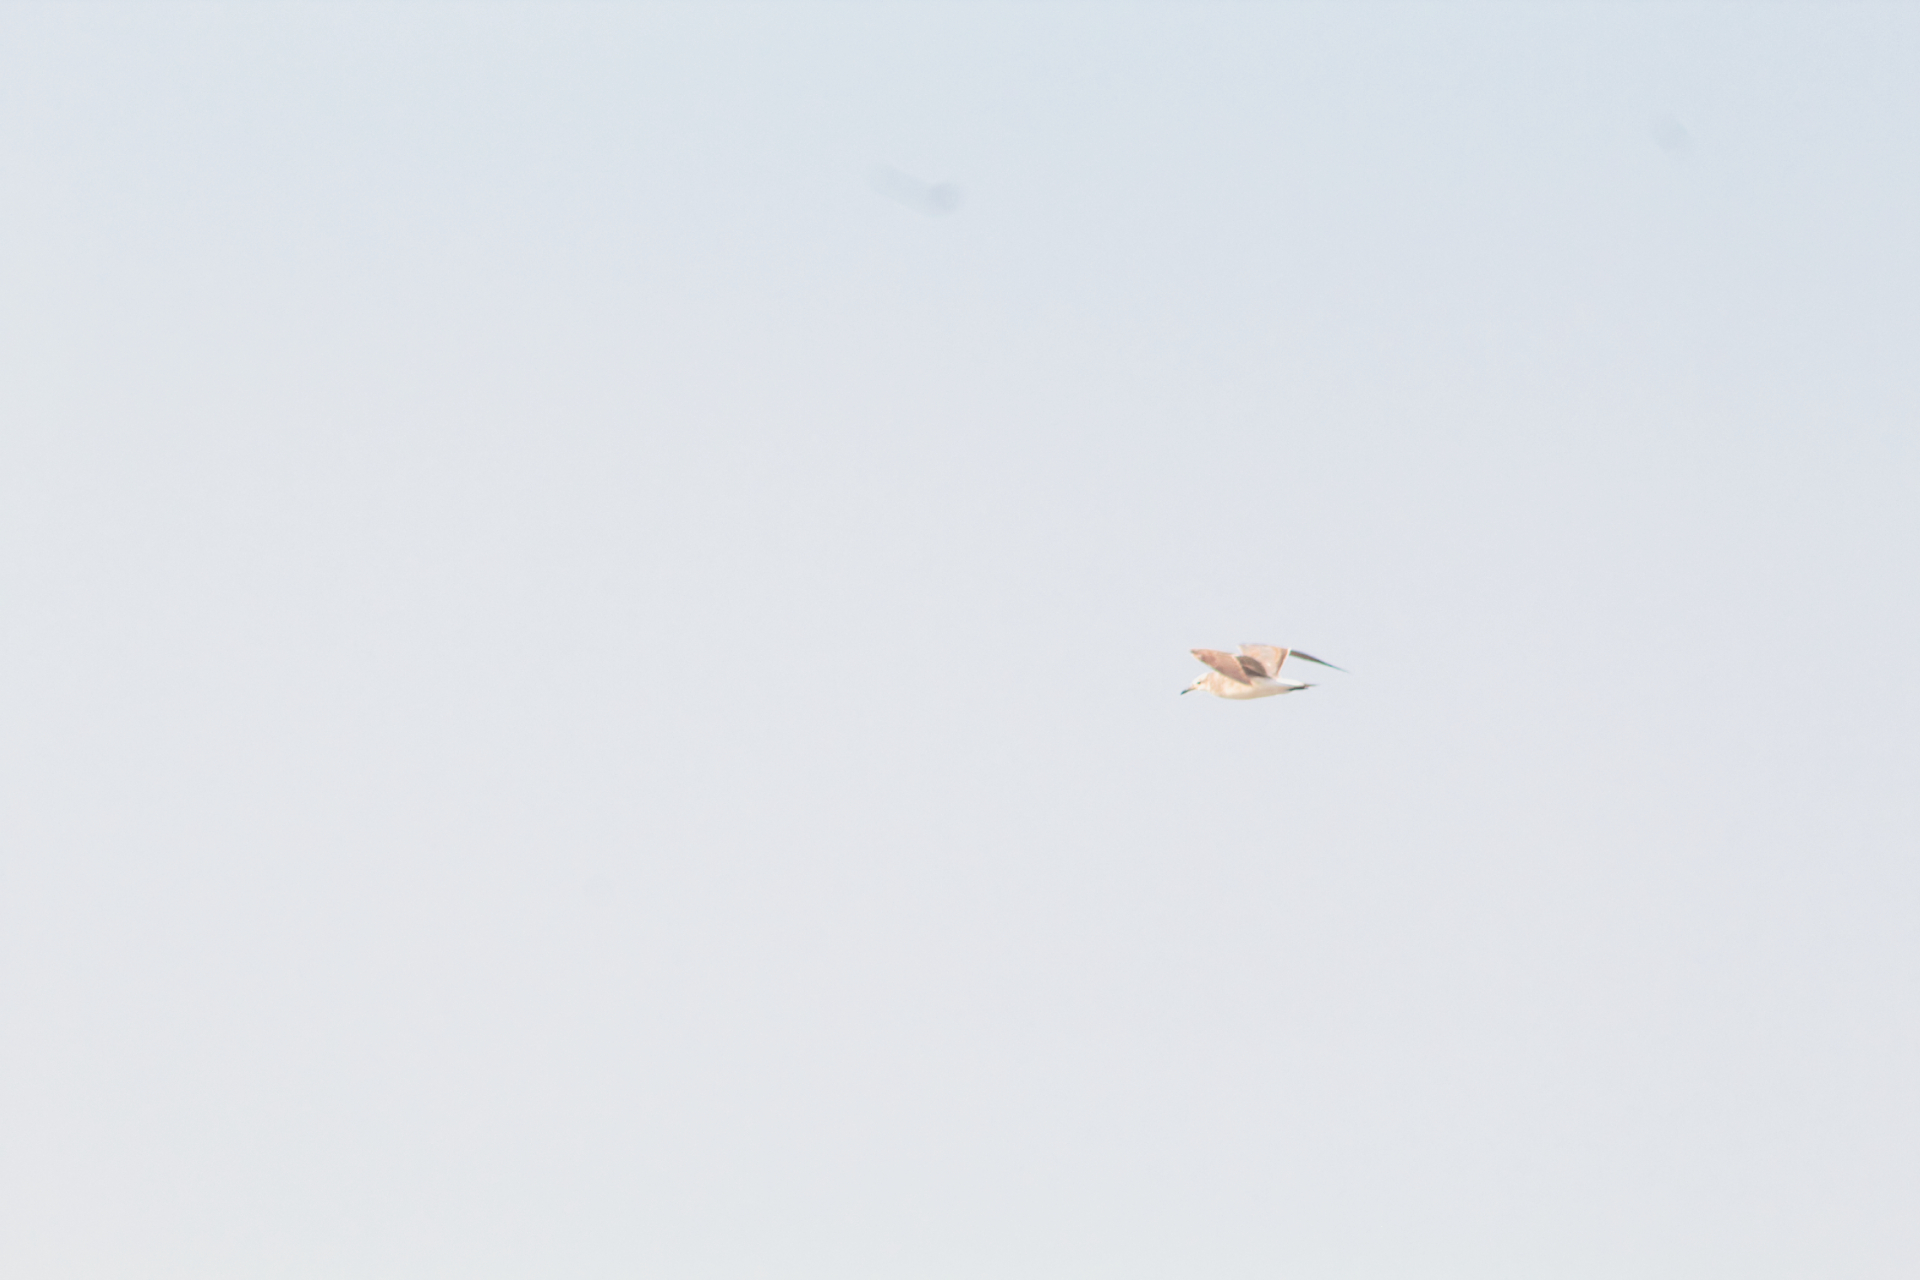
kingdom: Animalia
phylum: Chordata
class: Aves
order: Charadriiformes
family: Laridae
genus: Leucophaeus
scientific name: Leucophaeus atricilla
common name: Laughing gull
